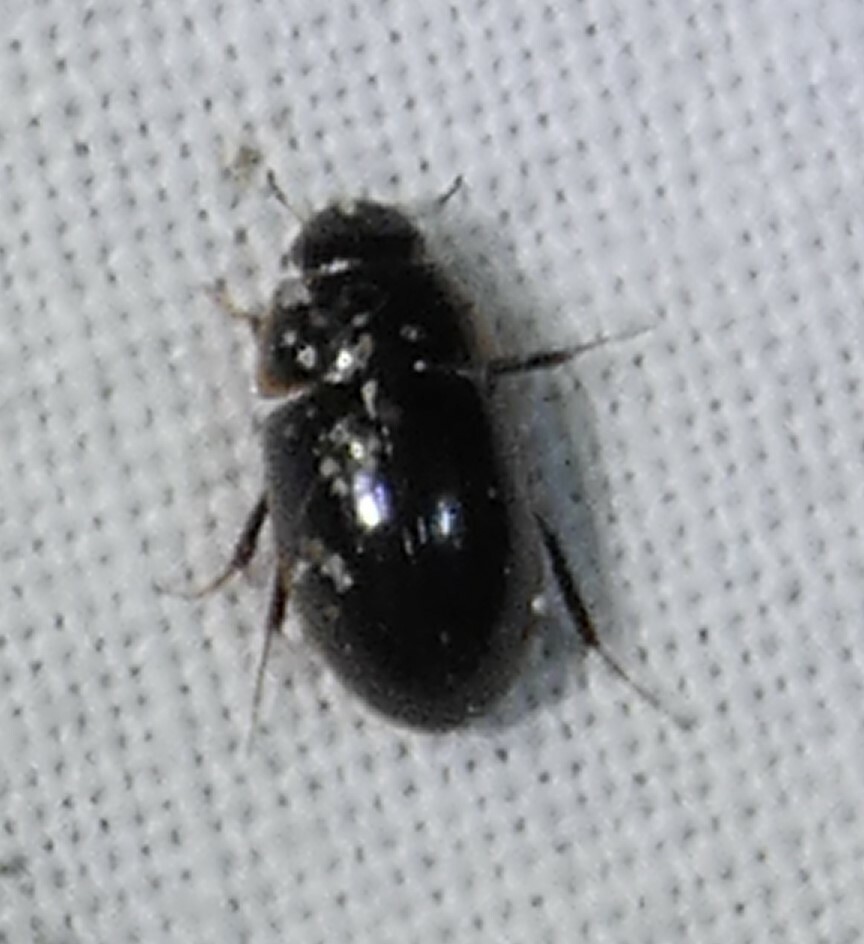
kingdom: Animalia
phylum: Arthropoda
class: Insecta
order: Coleoptera
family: Hydrophilidae
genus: Enochrus
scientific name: Enochrus
